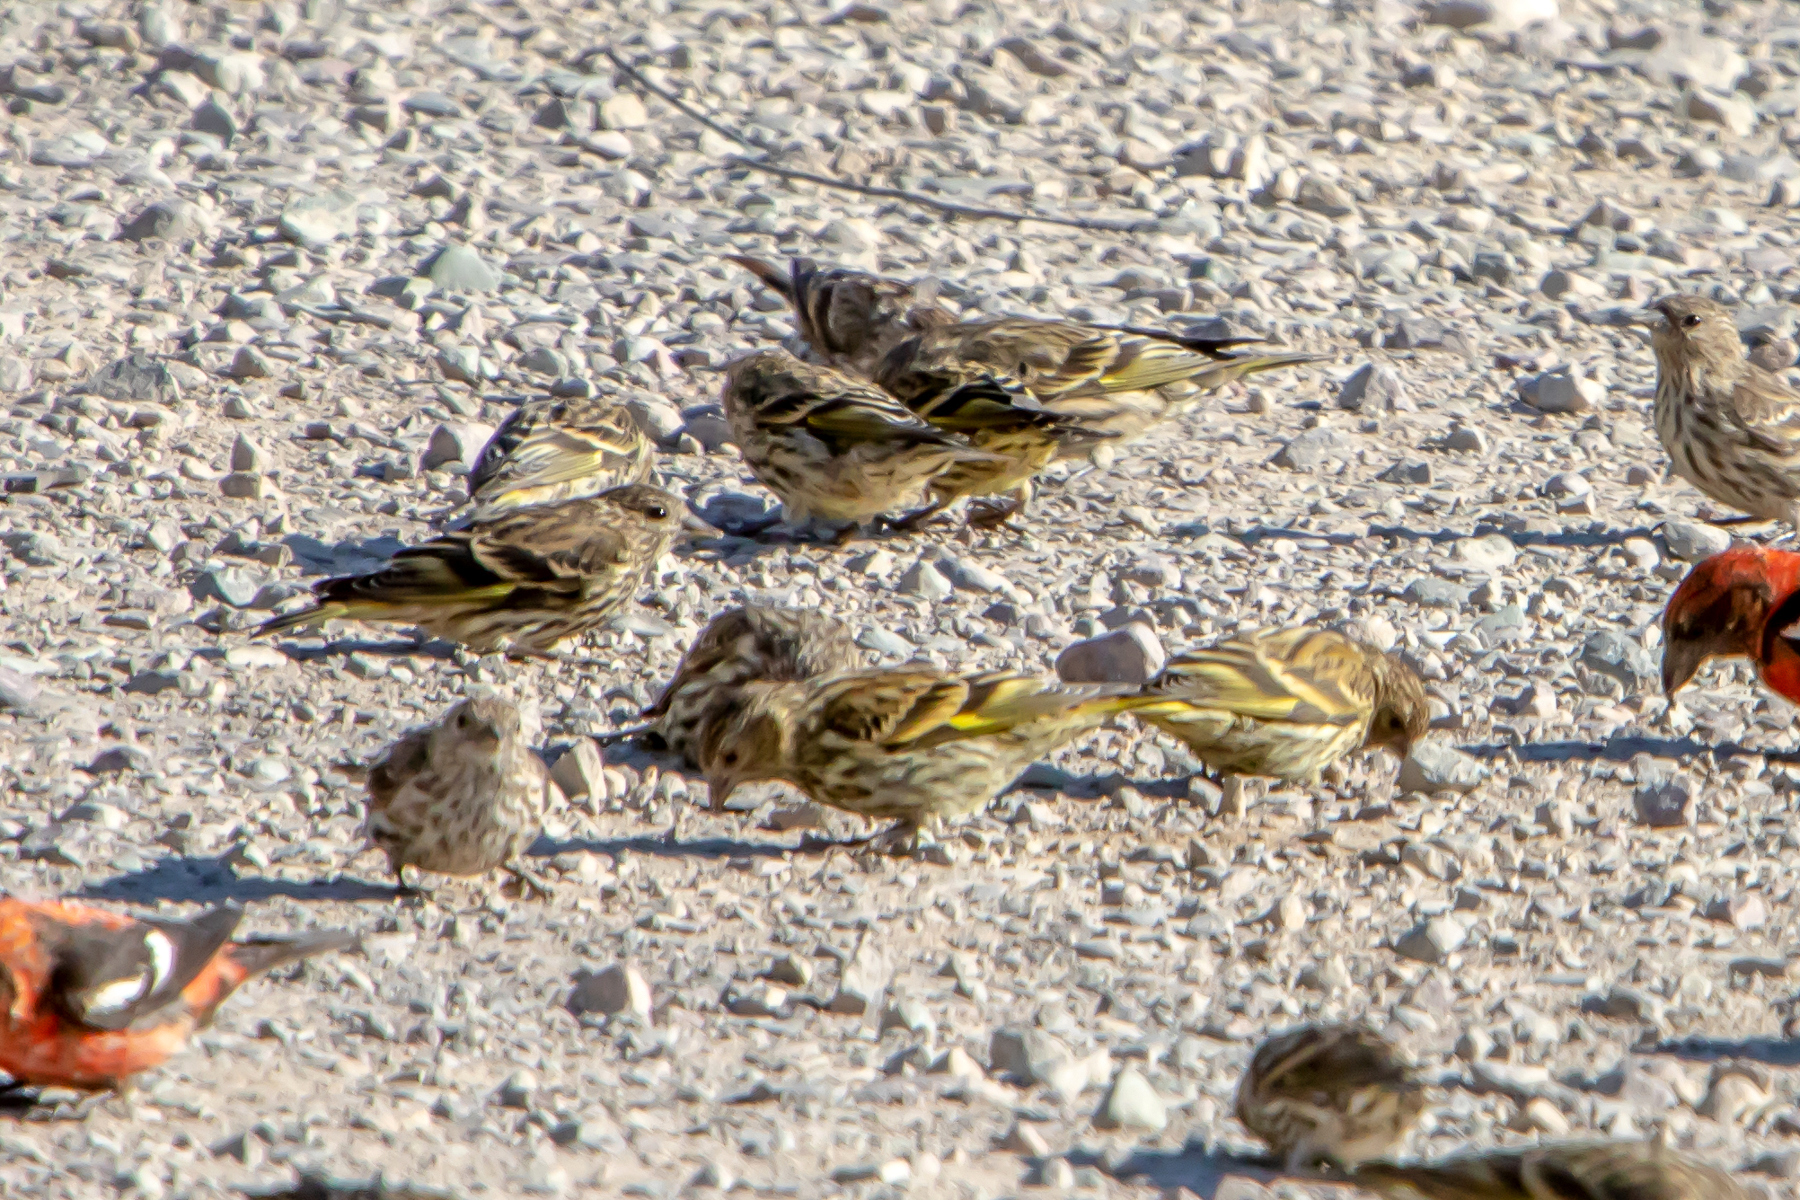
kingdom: Animalia
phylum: Chordata
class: Aves
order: Passeriformes
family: Fringillidae
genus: Spinus
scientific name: Spinus pinus
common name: Pine siskin
